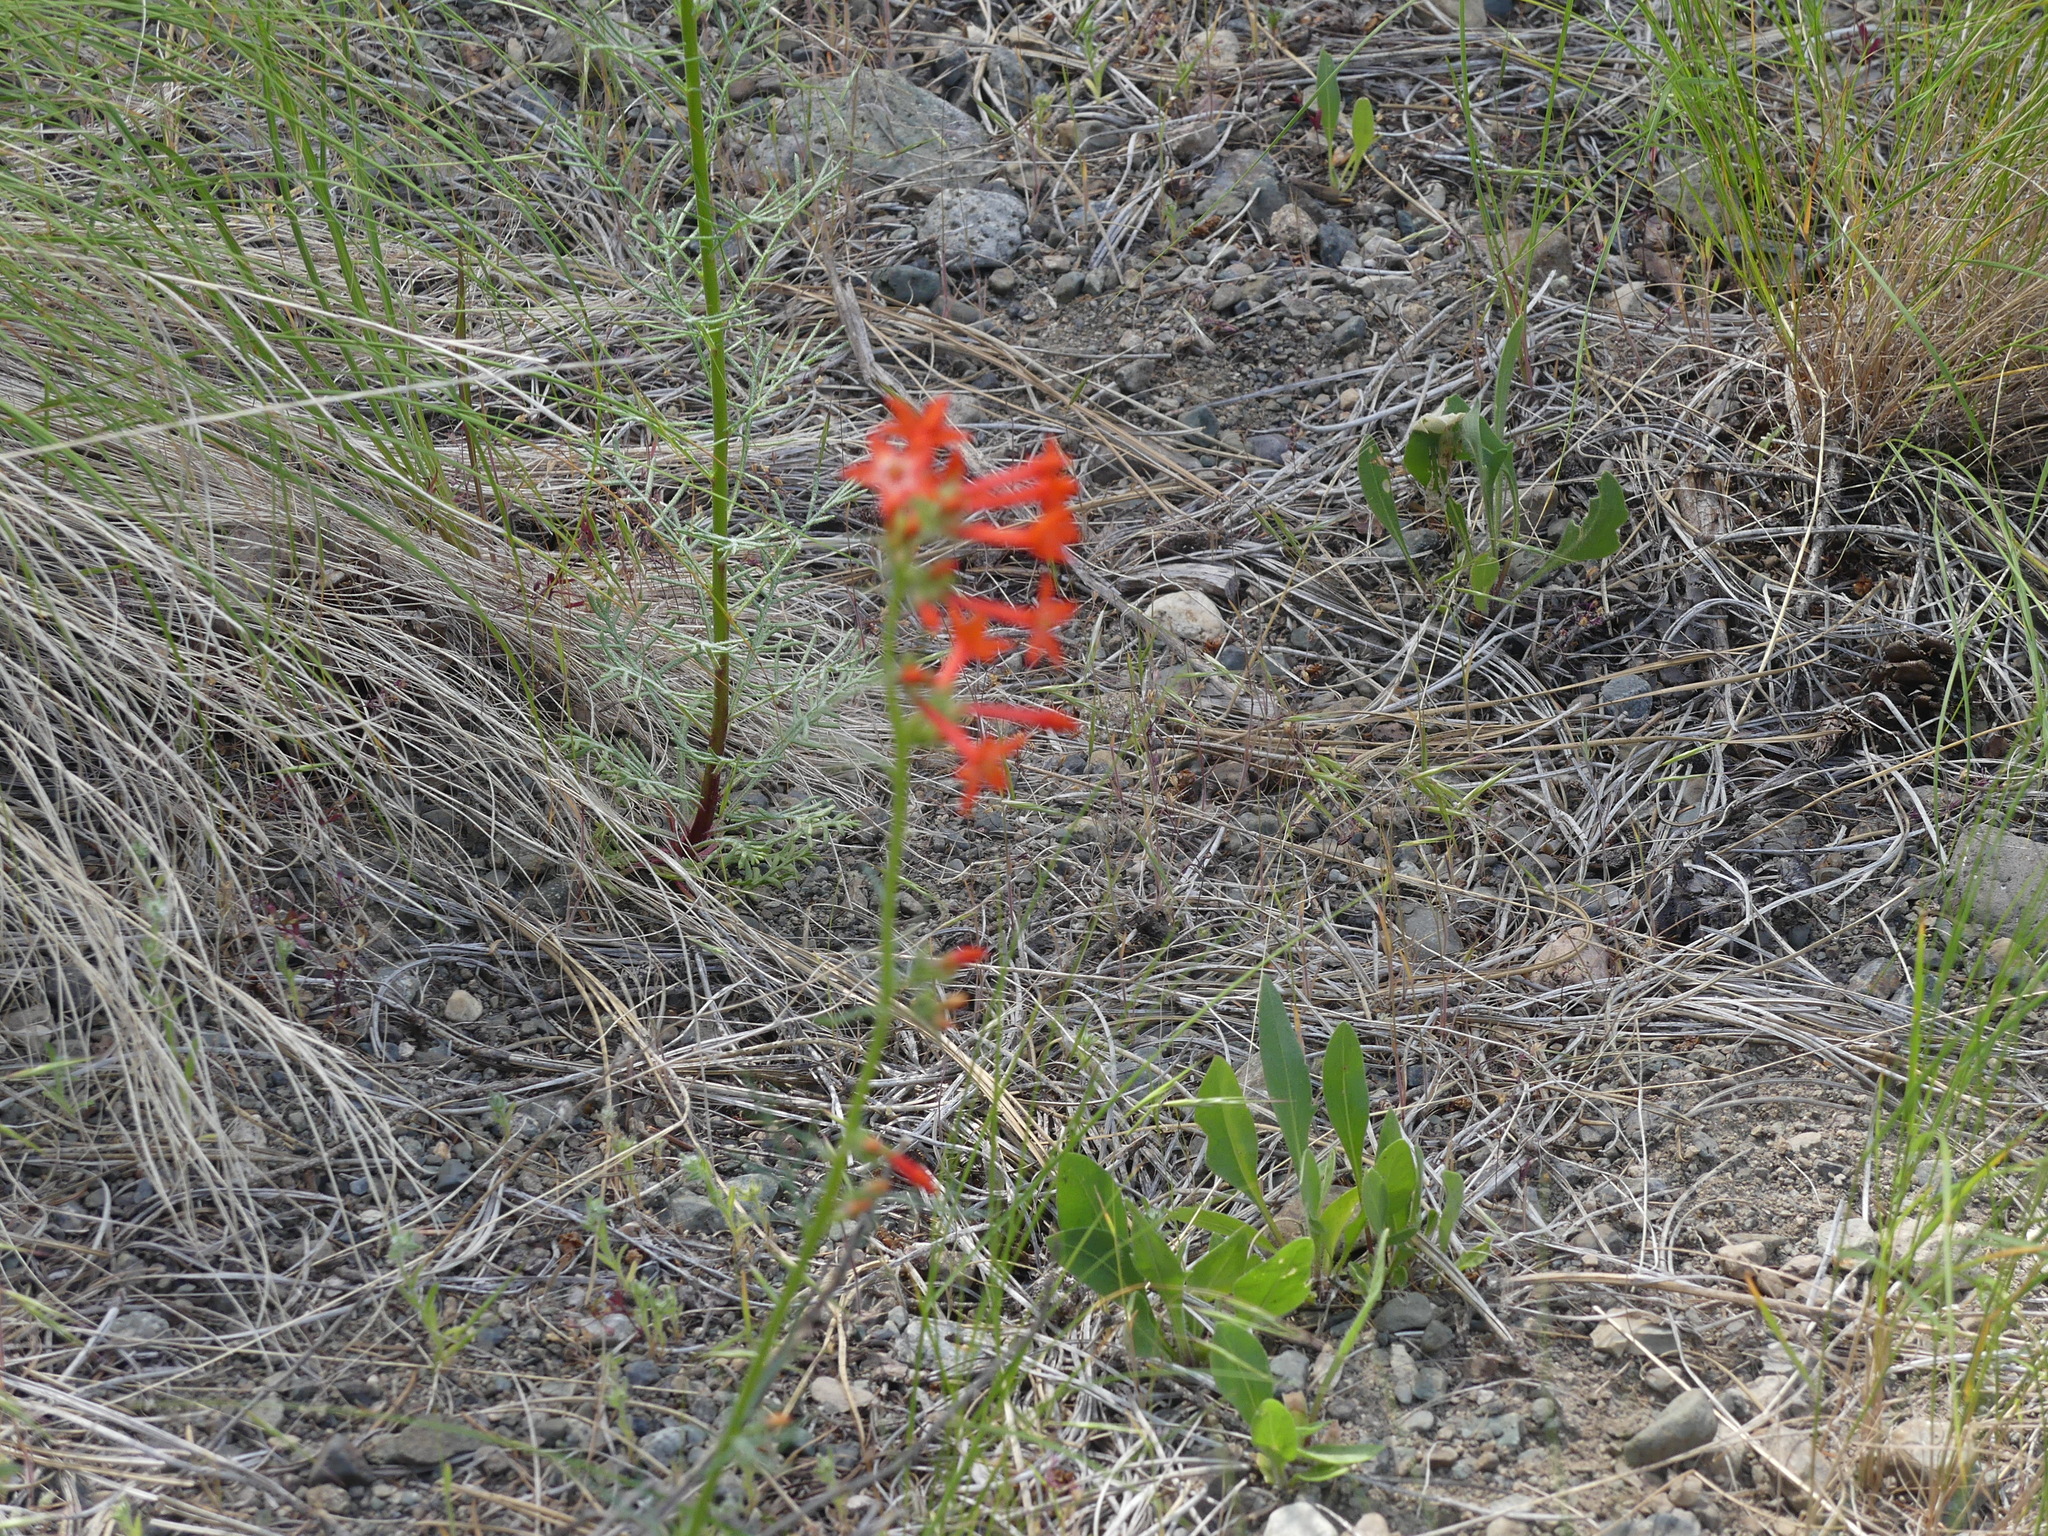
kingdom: Plantae
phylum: Tracheophyta
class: Magnoliopsida
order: Ericales
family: Polemoniaceae
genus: Ipomopsis
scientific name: Ipomopsis aggregata
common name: Scarlet gilia
